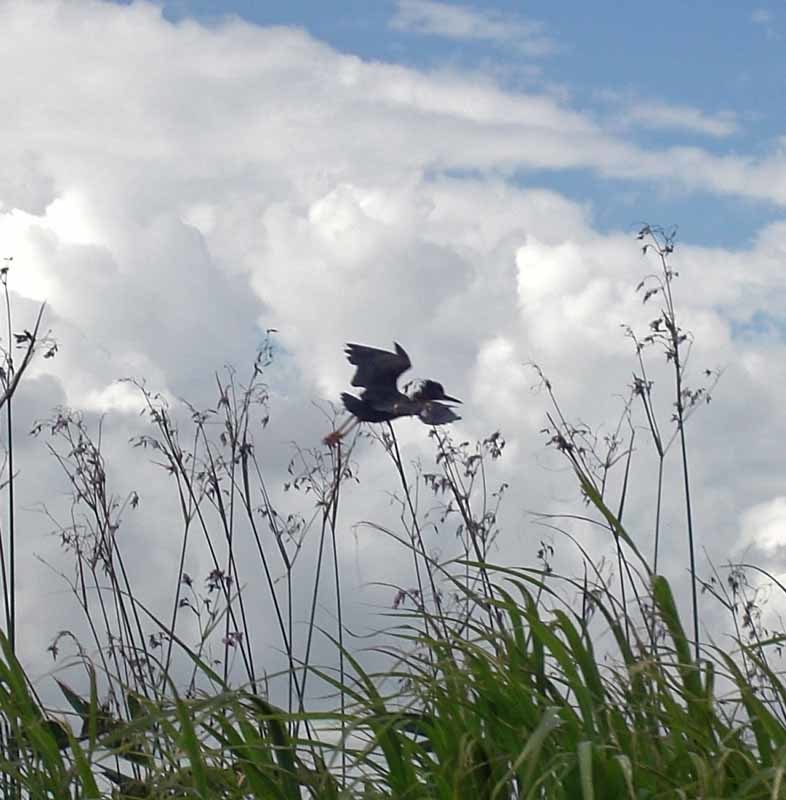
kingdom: Animalia
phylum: Chordata
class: Aves
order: Pelecaniformes
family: Ardeidae
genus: Butorides
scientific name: Butorides virescens
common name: Green heron
